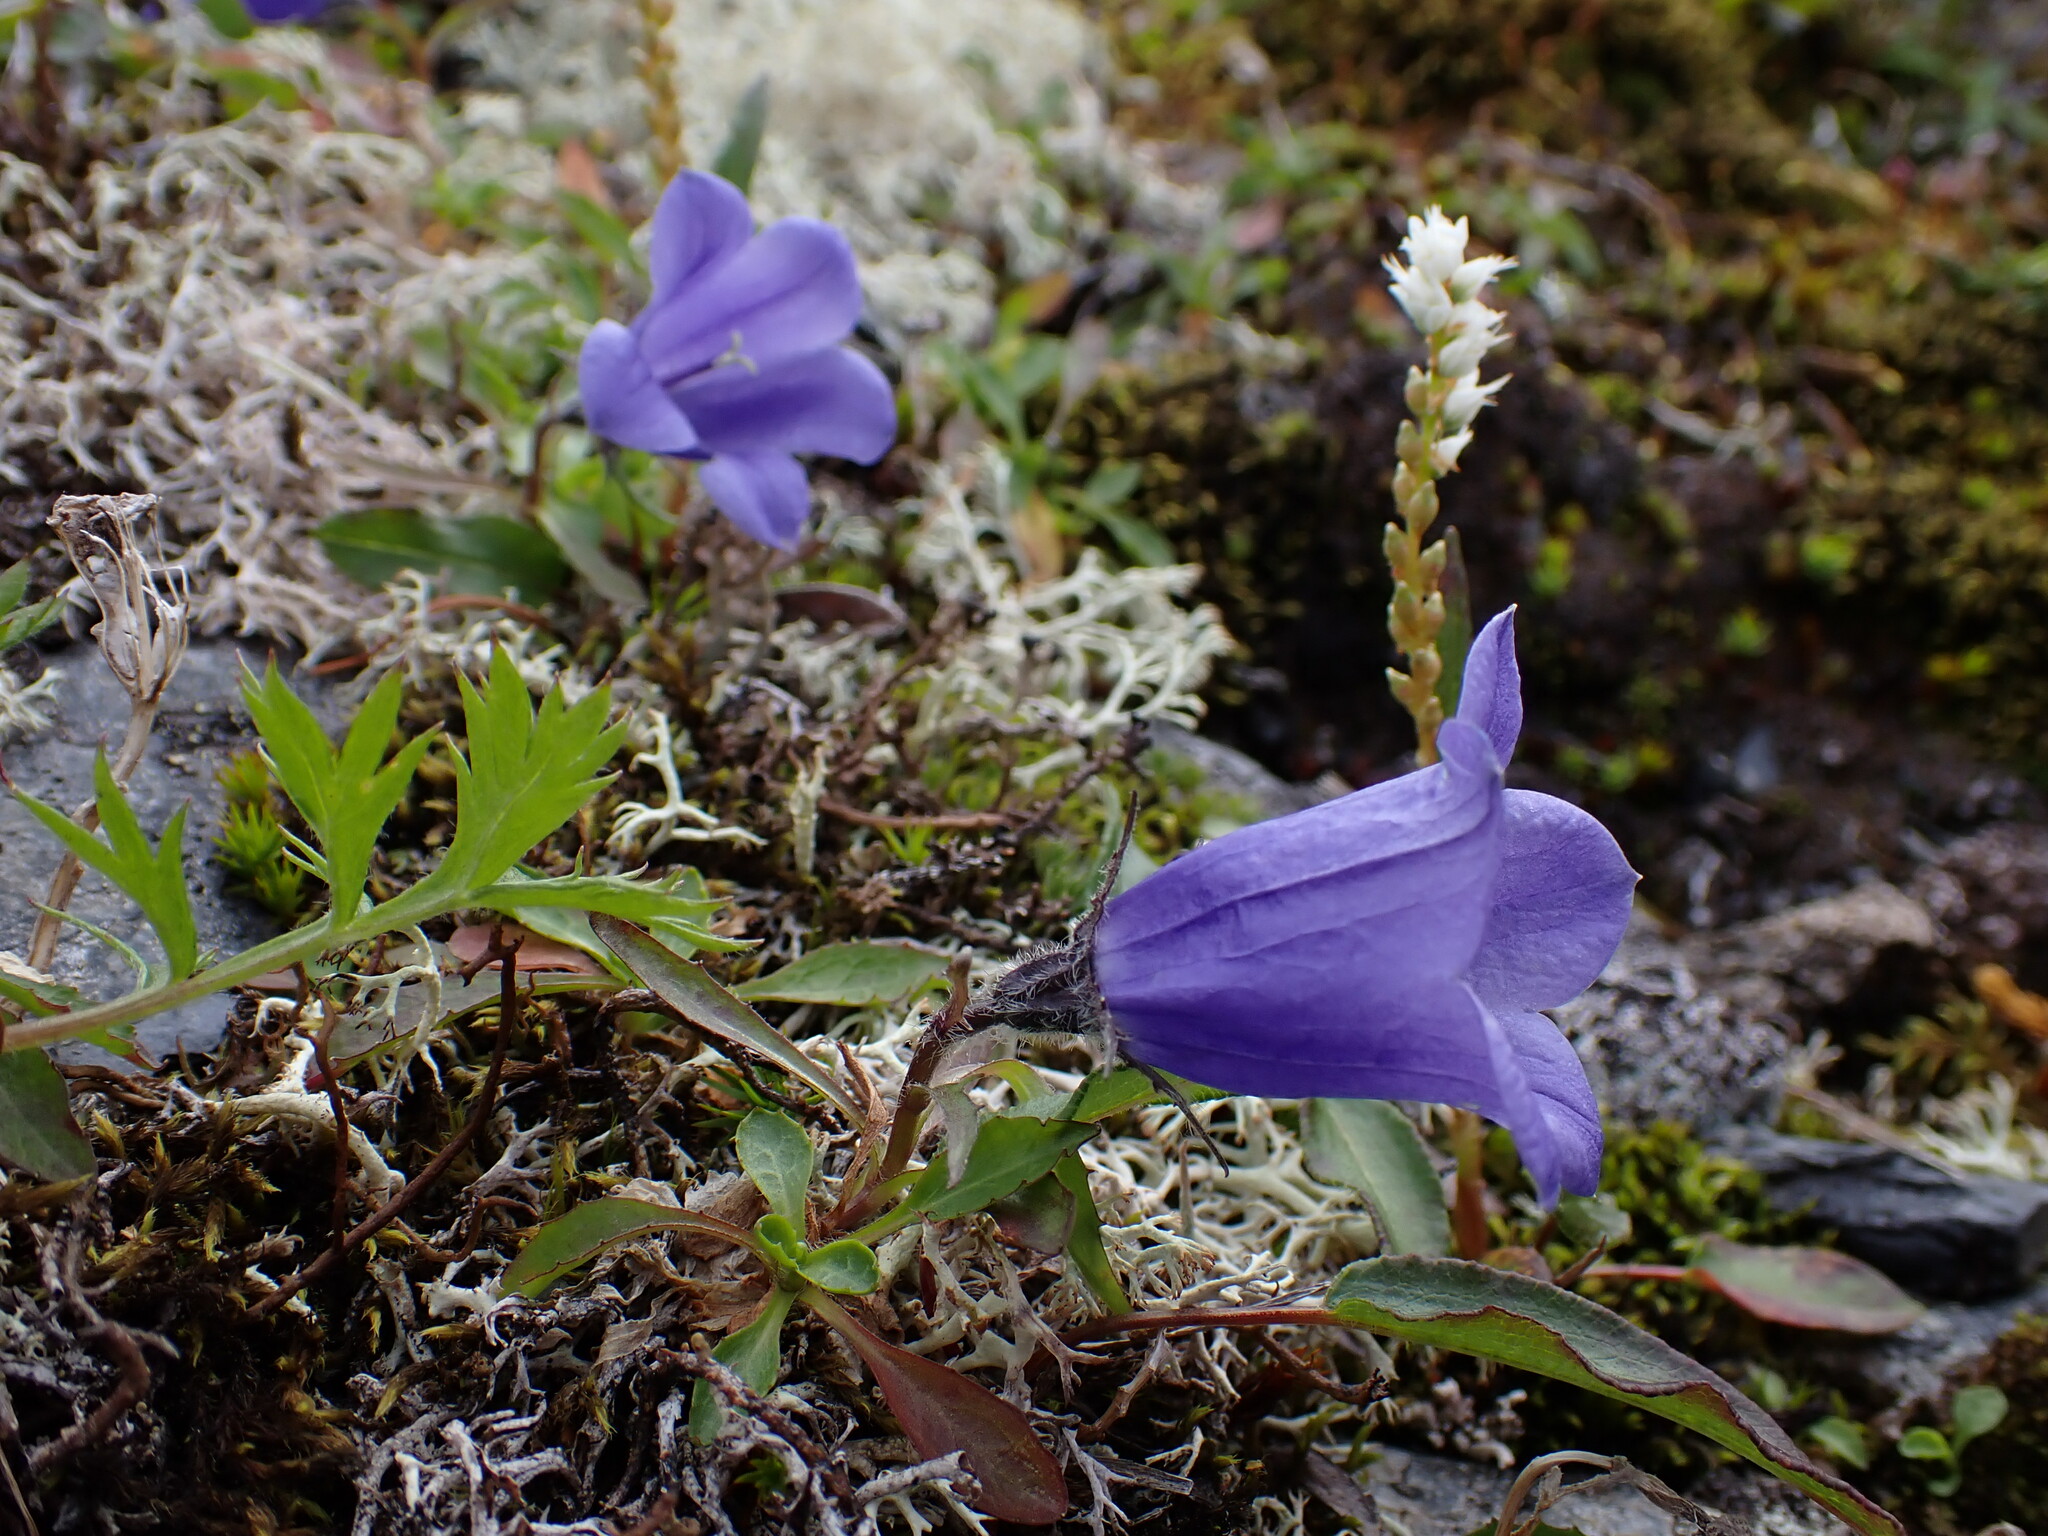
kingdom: Plantae
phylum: Tracheophyta
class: Magnoliopsida
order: Asterales
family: Campanulaceae
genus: Campanula
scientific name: Campanula lasiocarpa
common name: Mountain harebell
